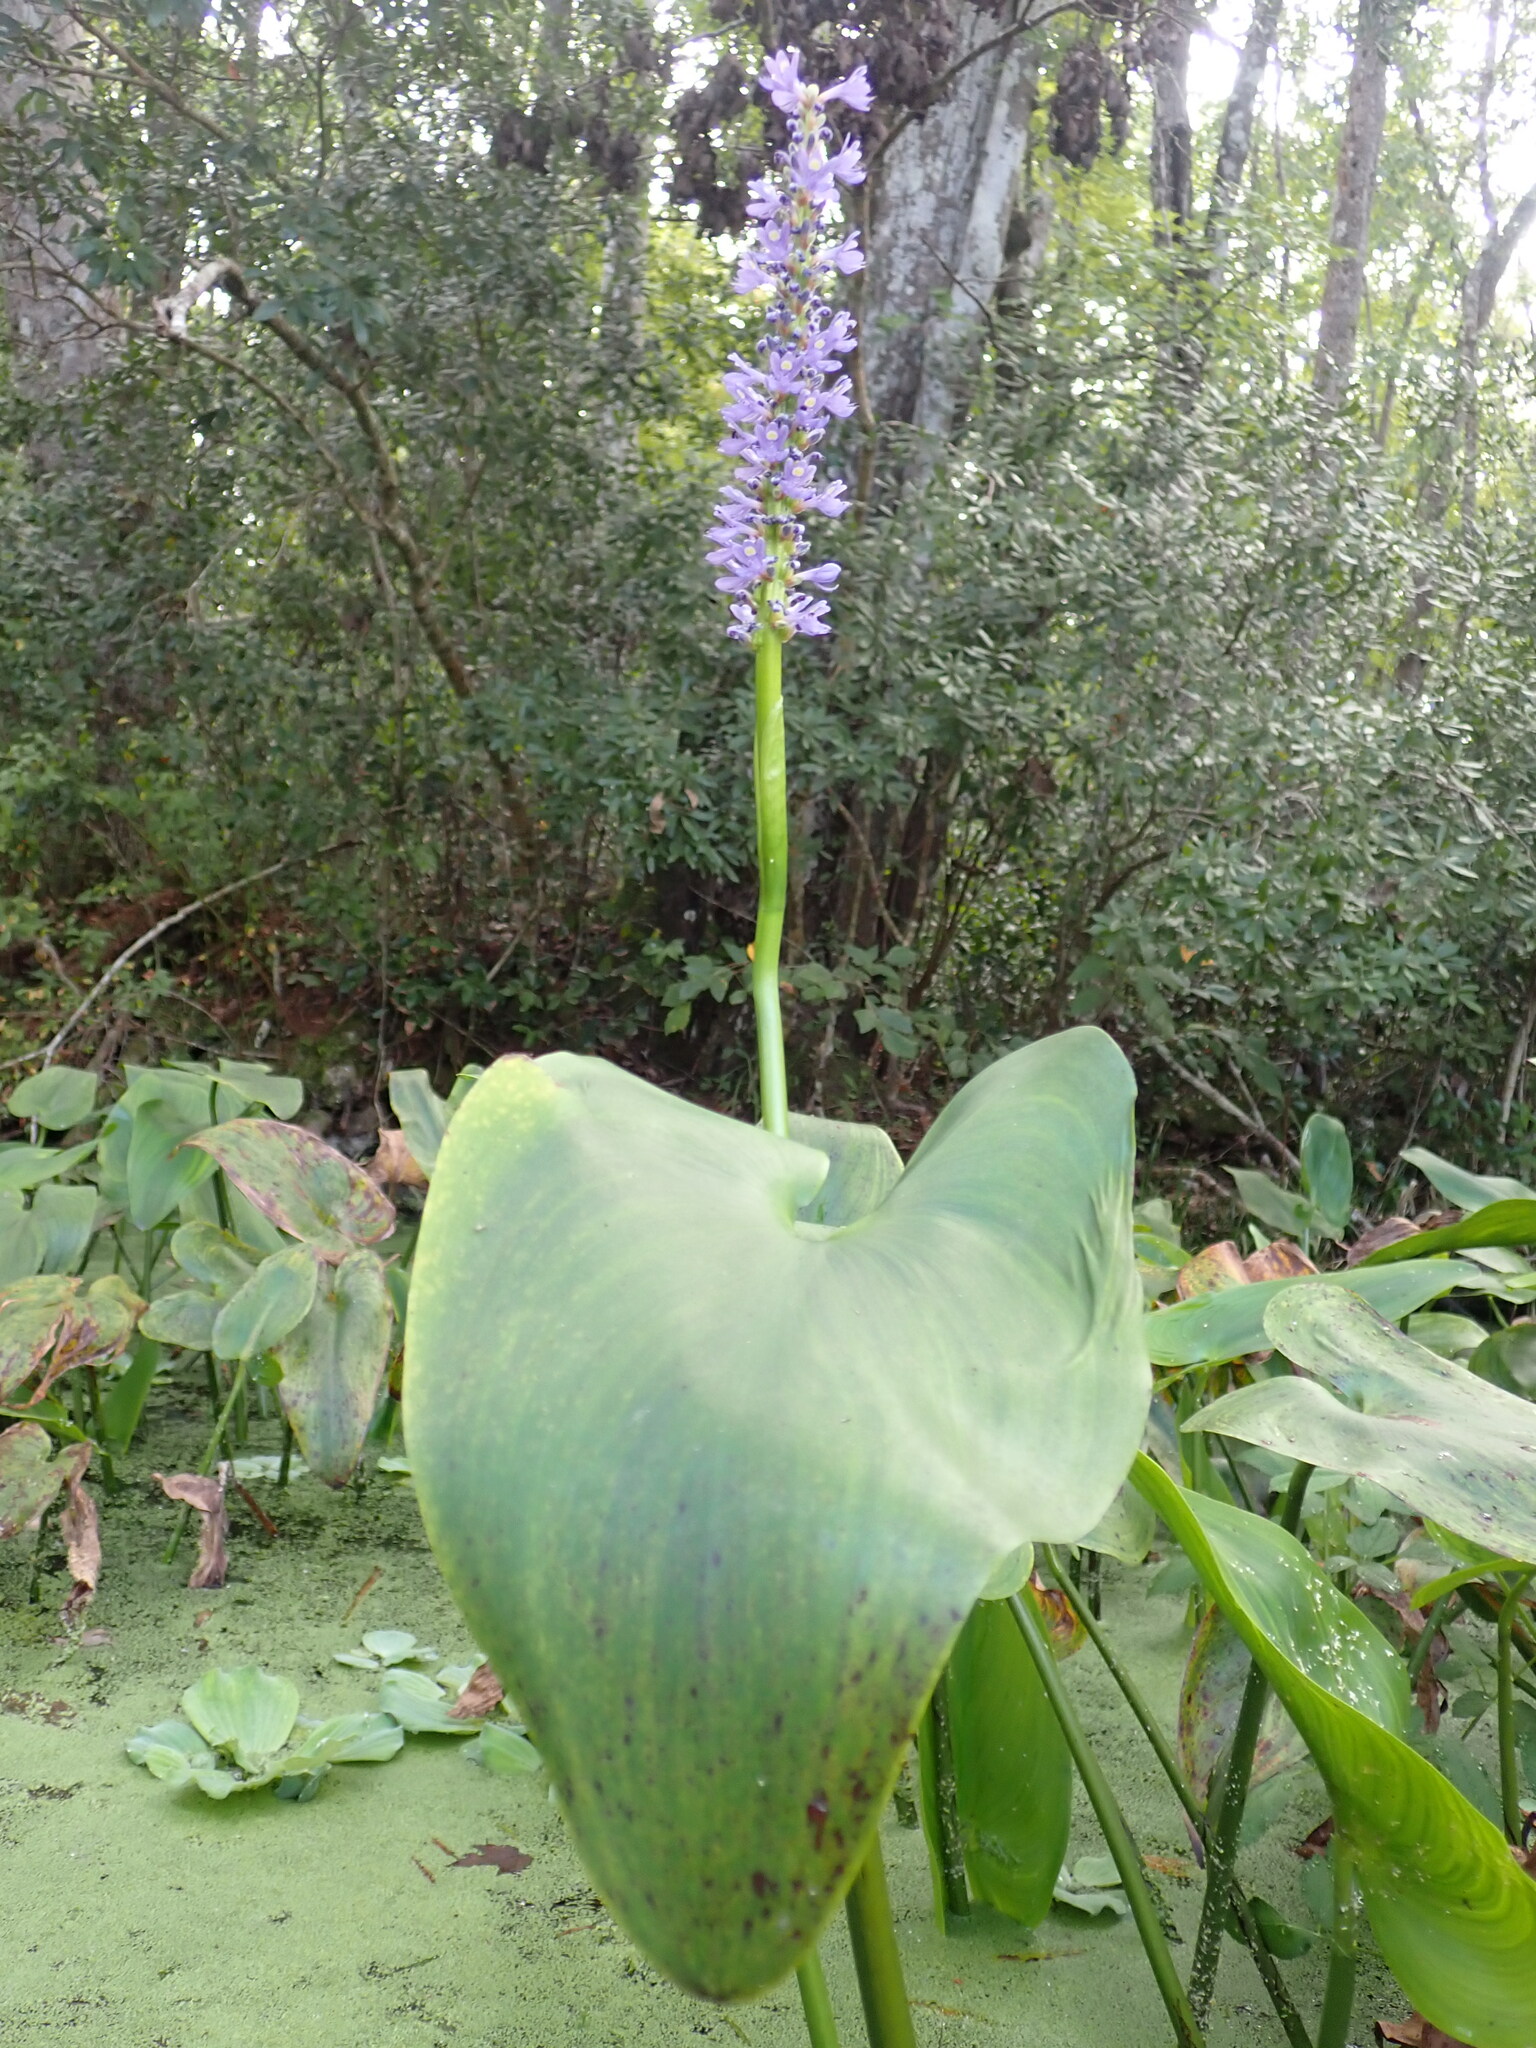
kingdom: Plantae
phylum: Tracheophyta
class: Liliopsida
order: Commelinales
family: Pontederiaceae
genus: Pontederia
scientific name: Pontederia cordata
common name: Pickerelweed
